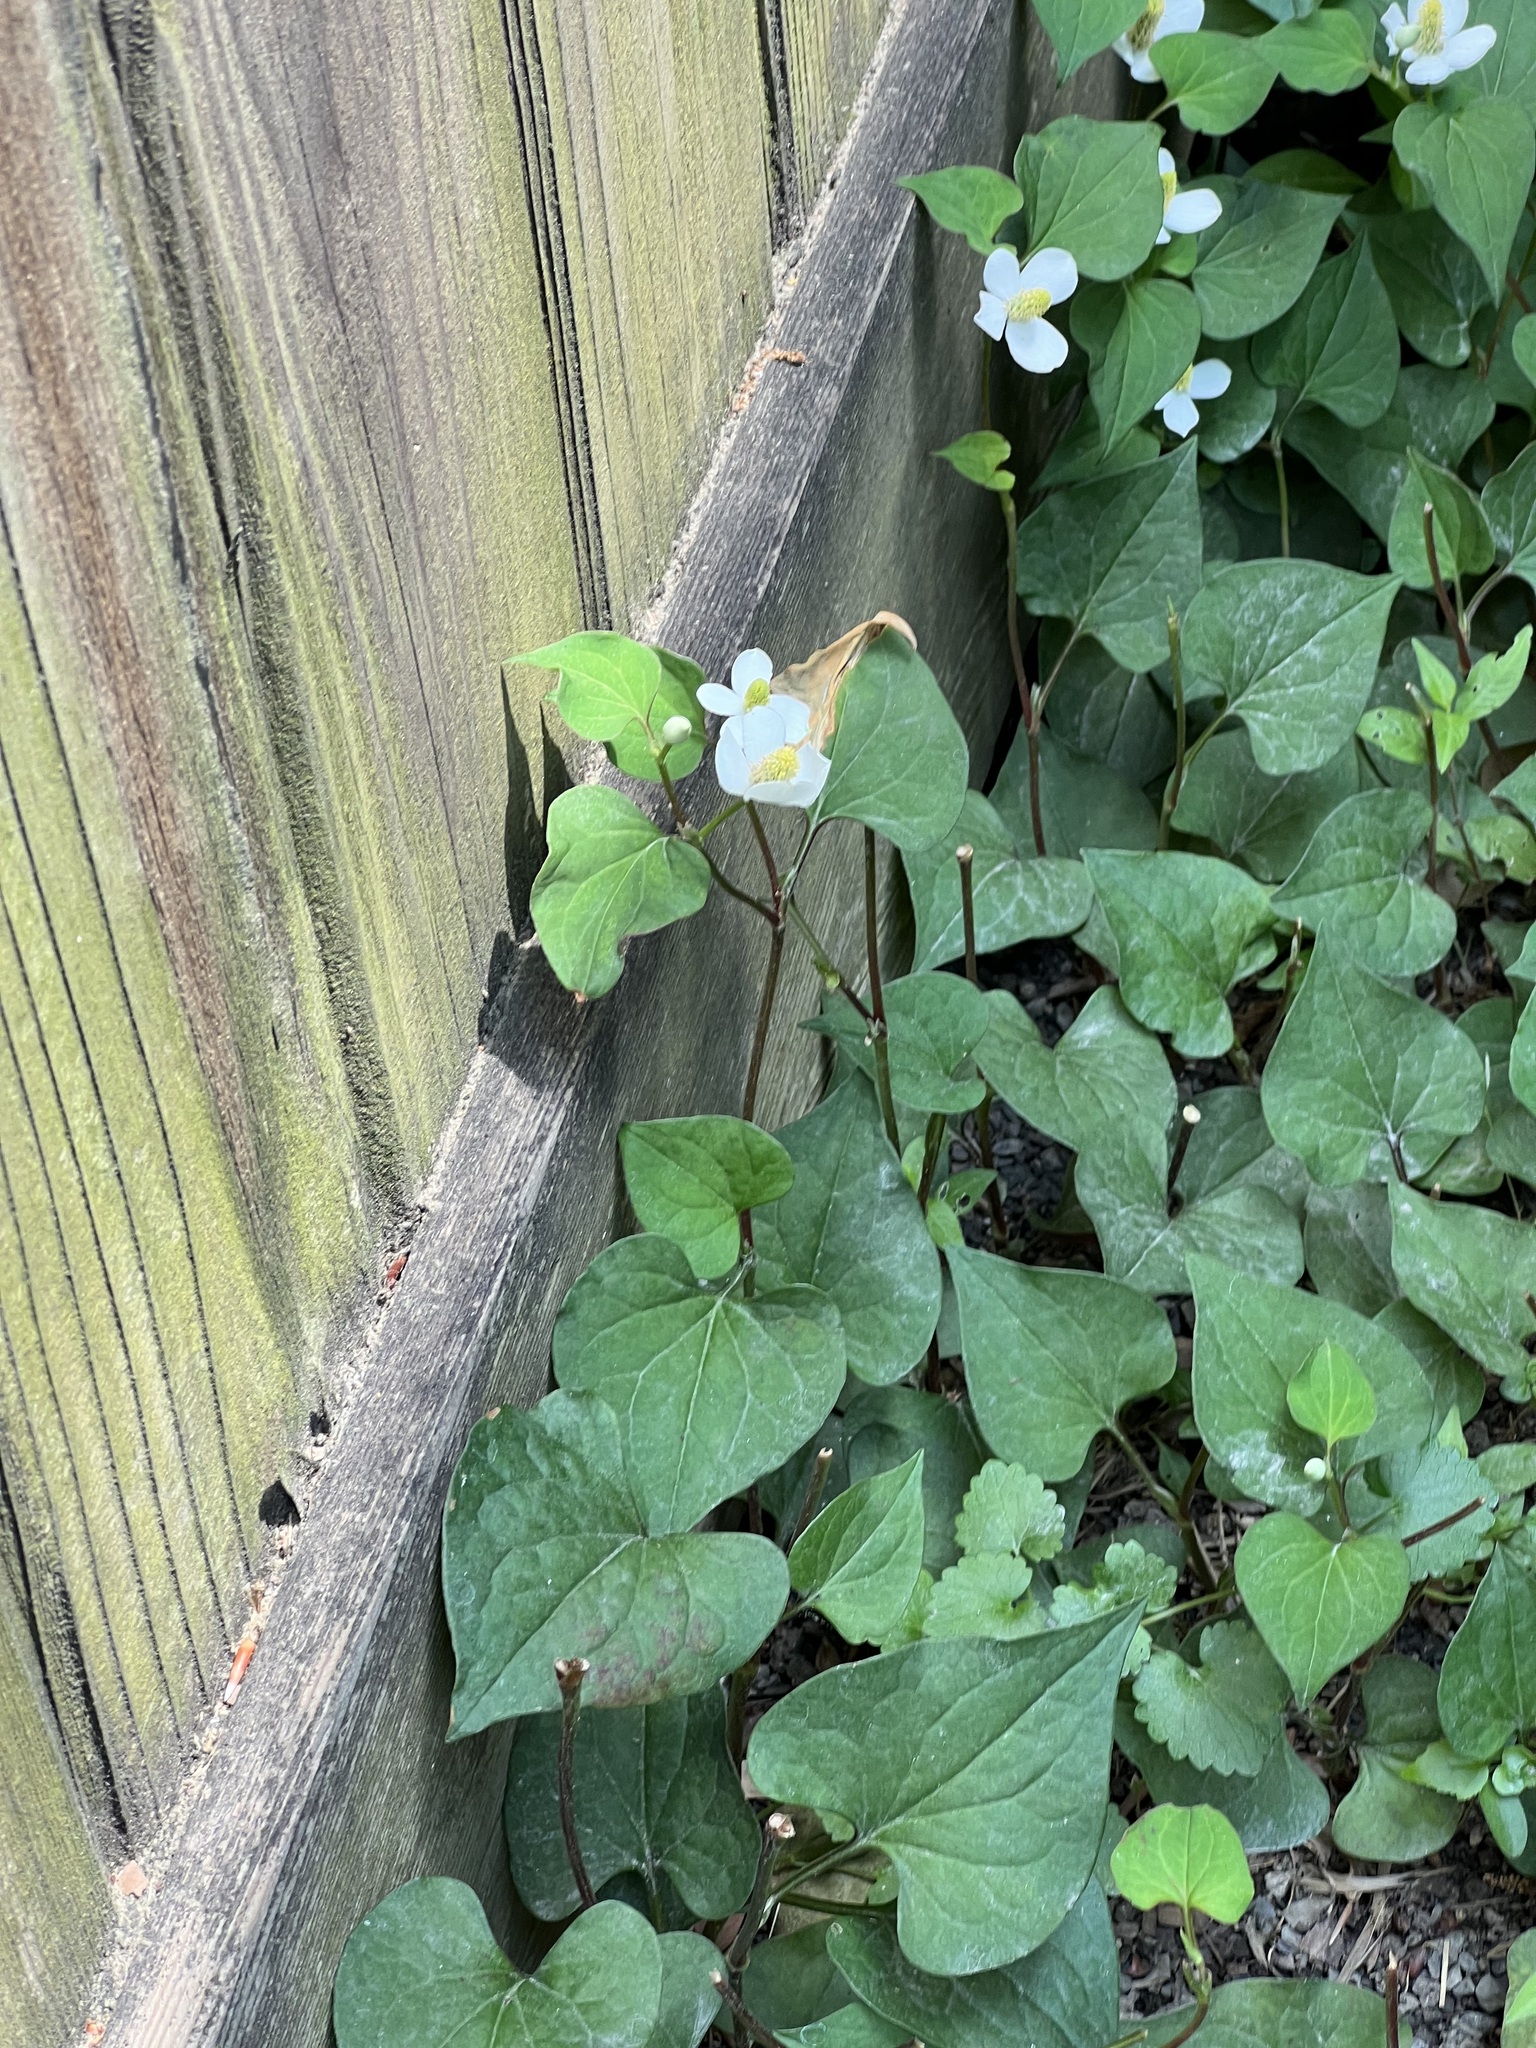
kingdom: Plantae
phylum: Tracheophyta
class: Magnoliopsida
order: Piperales
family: Saururaceae
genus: Houttuynia
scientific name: Houttuynia cordata
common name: Chameleon
